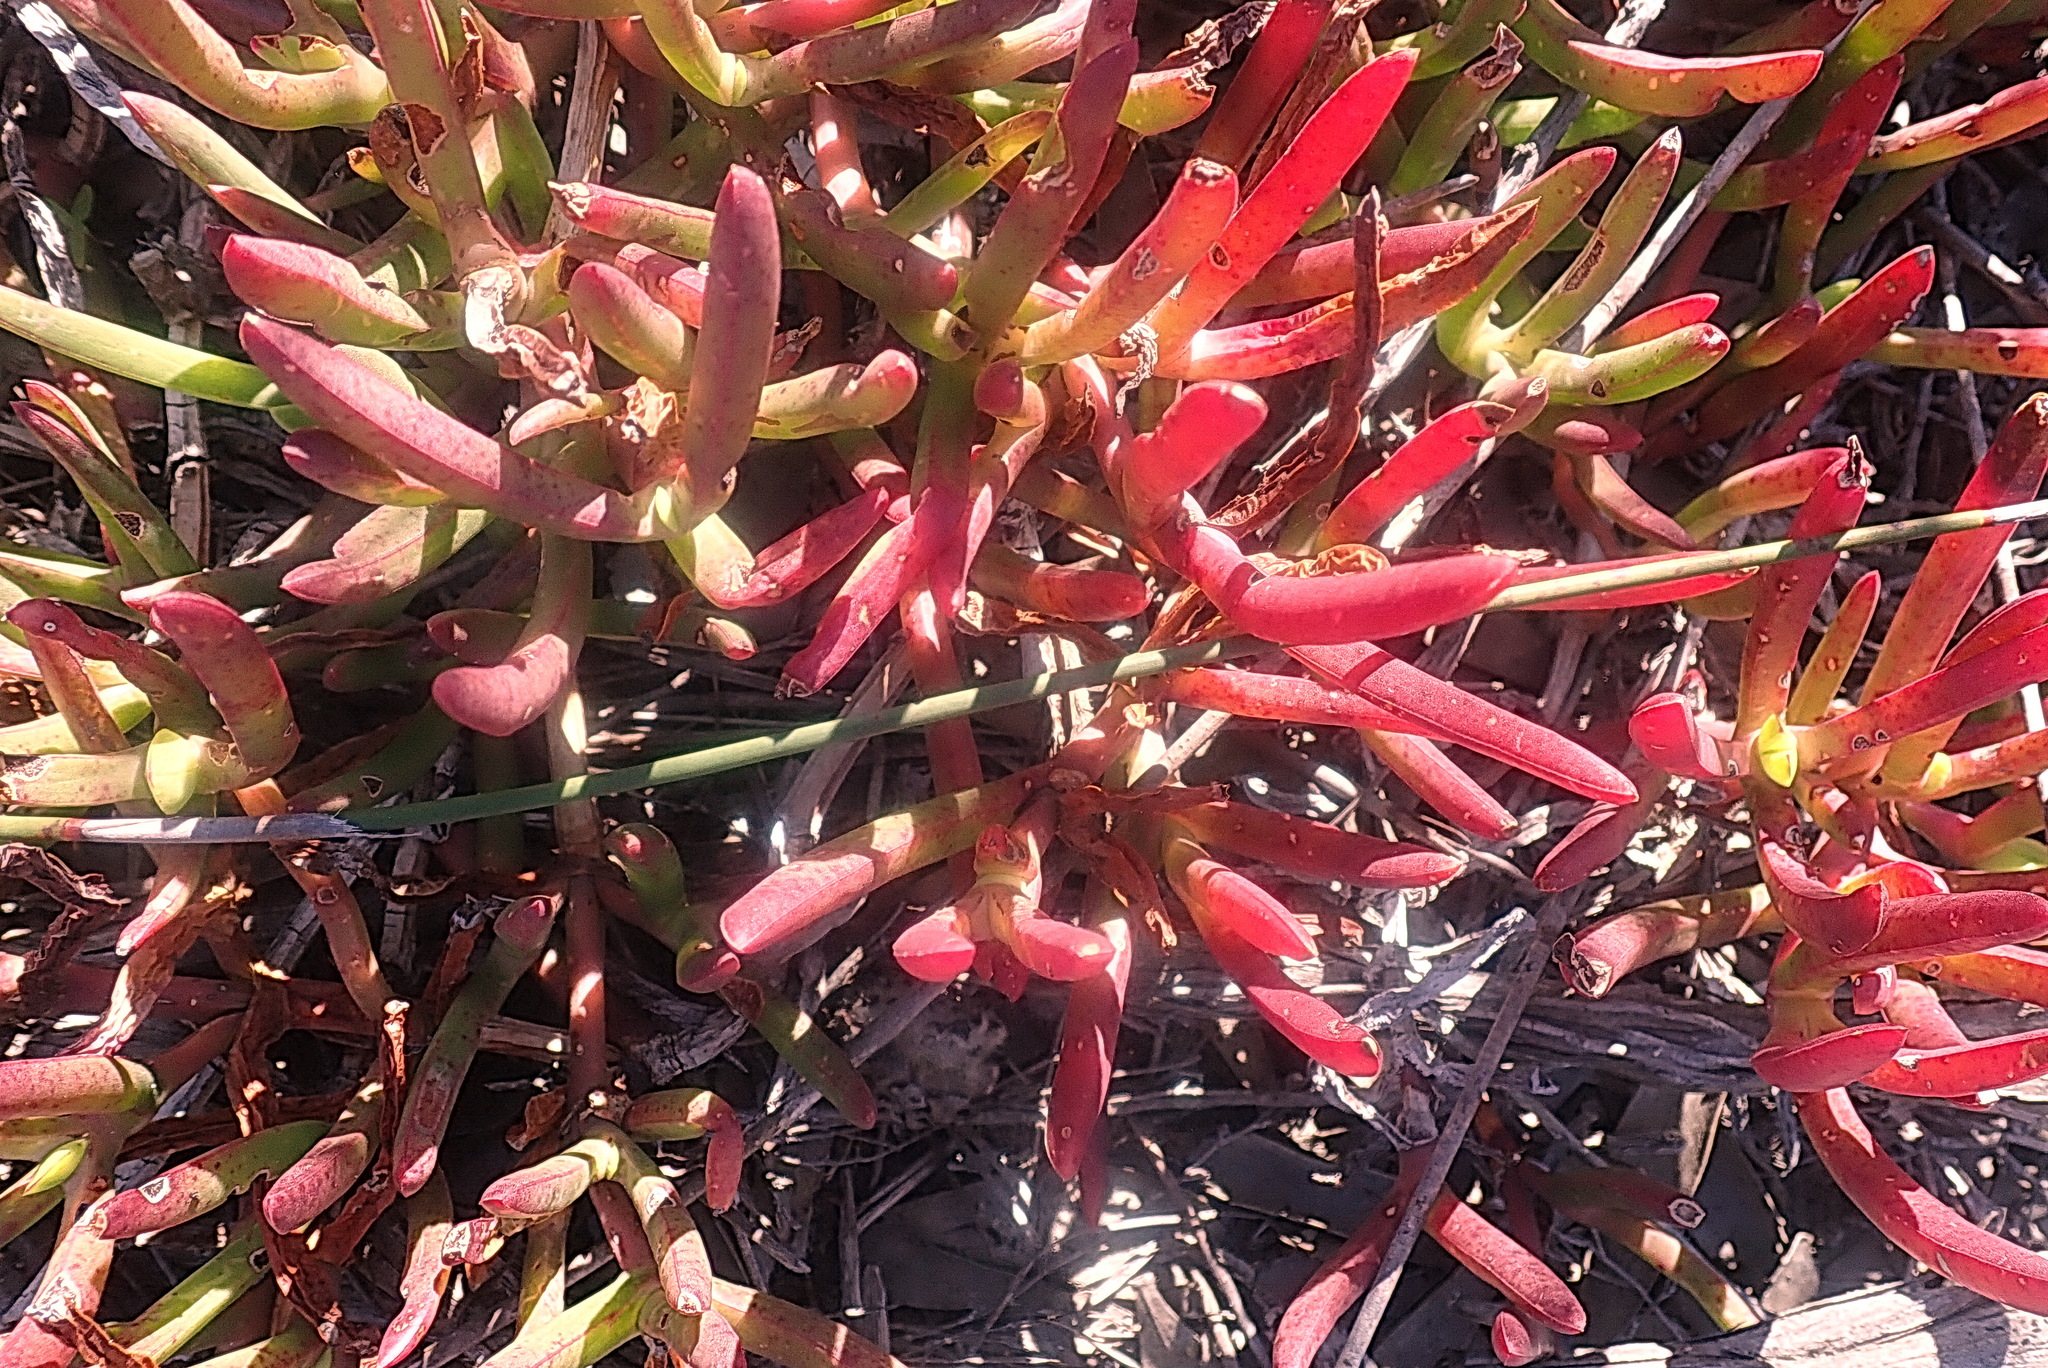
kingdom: Plantae
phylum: Tracheophyta
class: Magnoliopsida
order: Caryophyllales
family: Aizoaceae
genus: Carpobrotus
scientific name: Carpobrotus muirii
